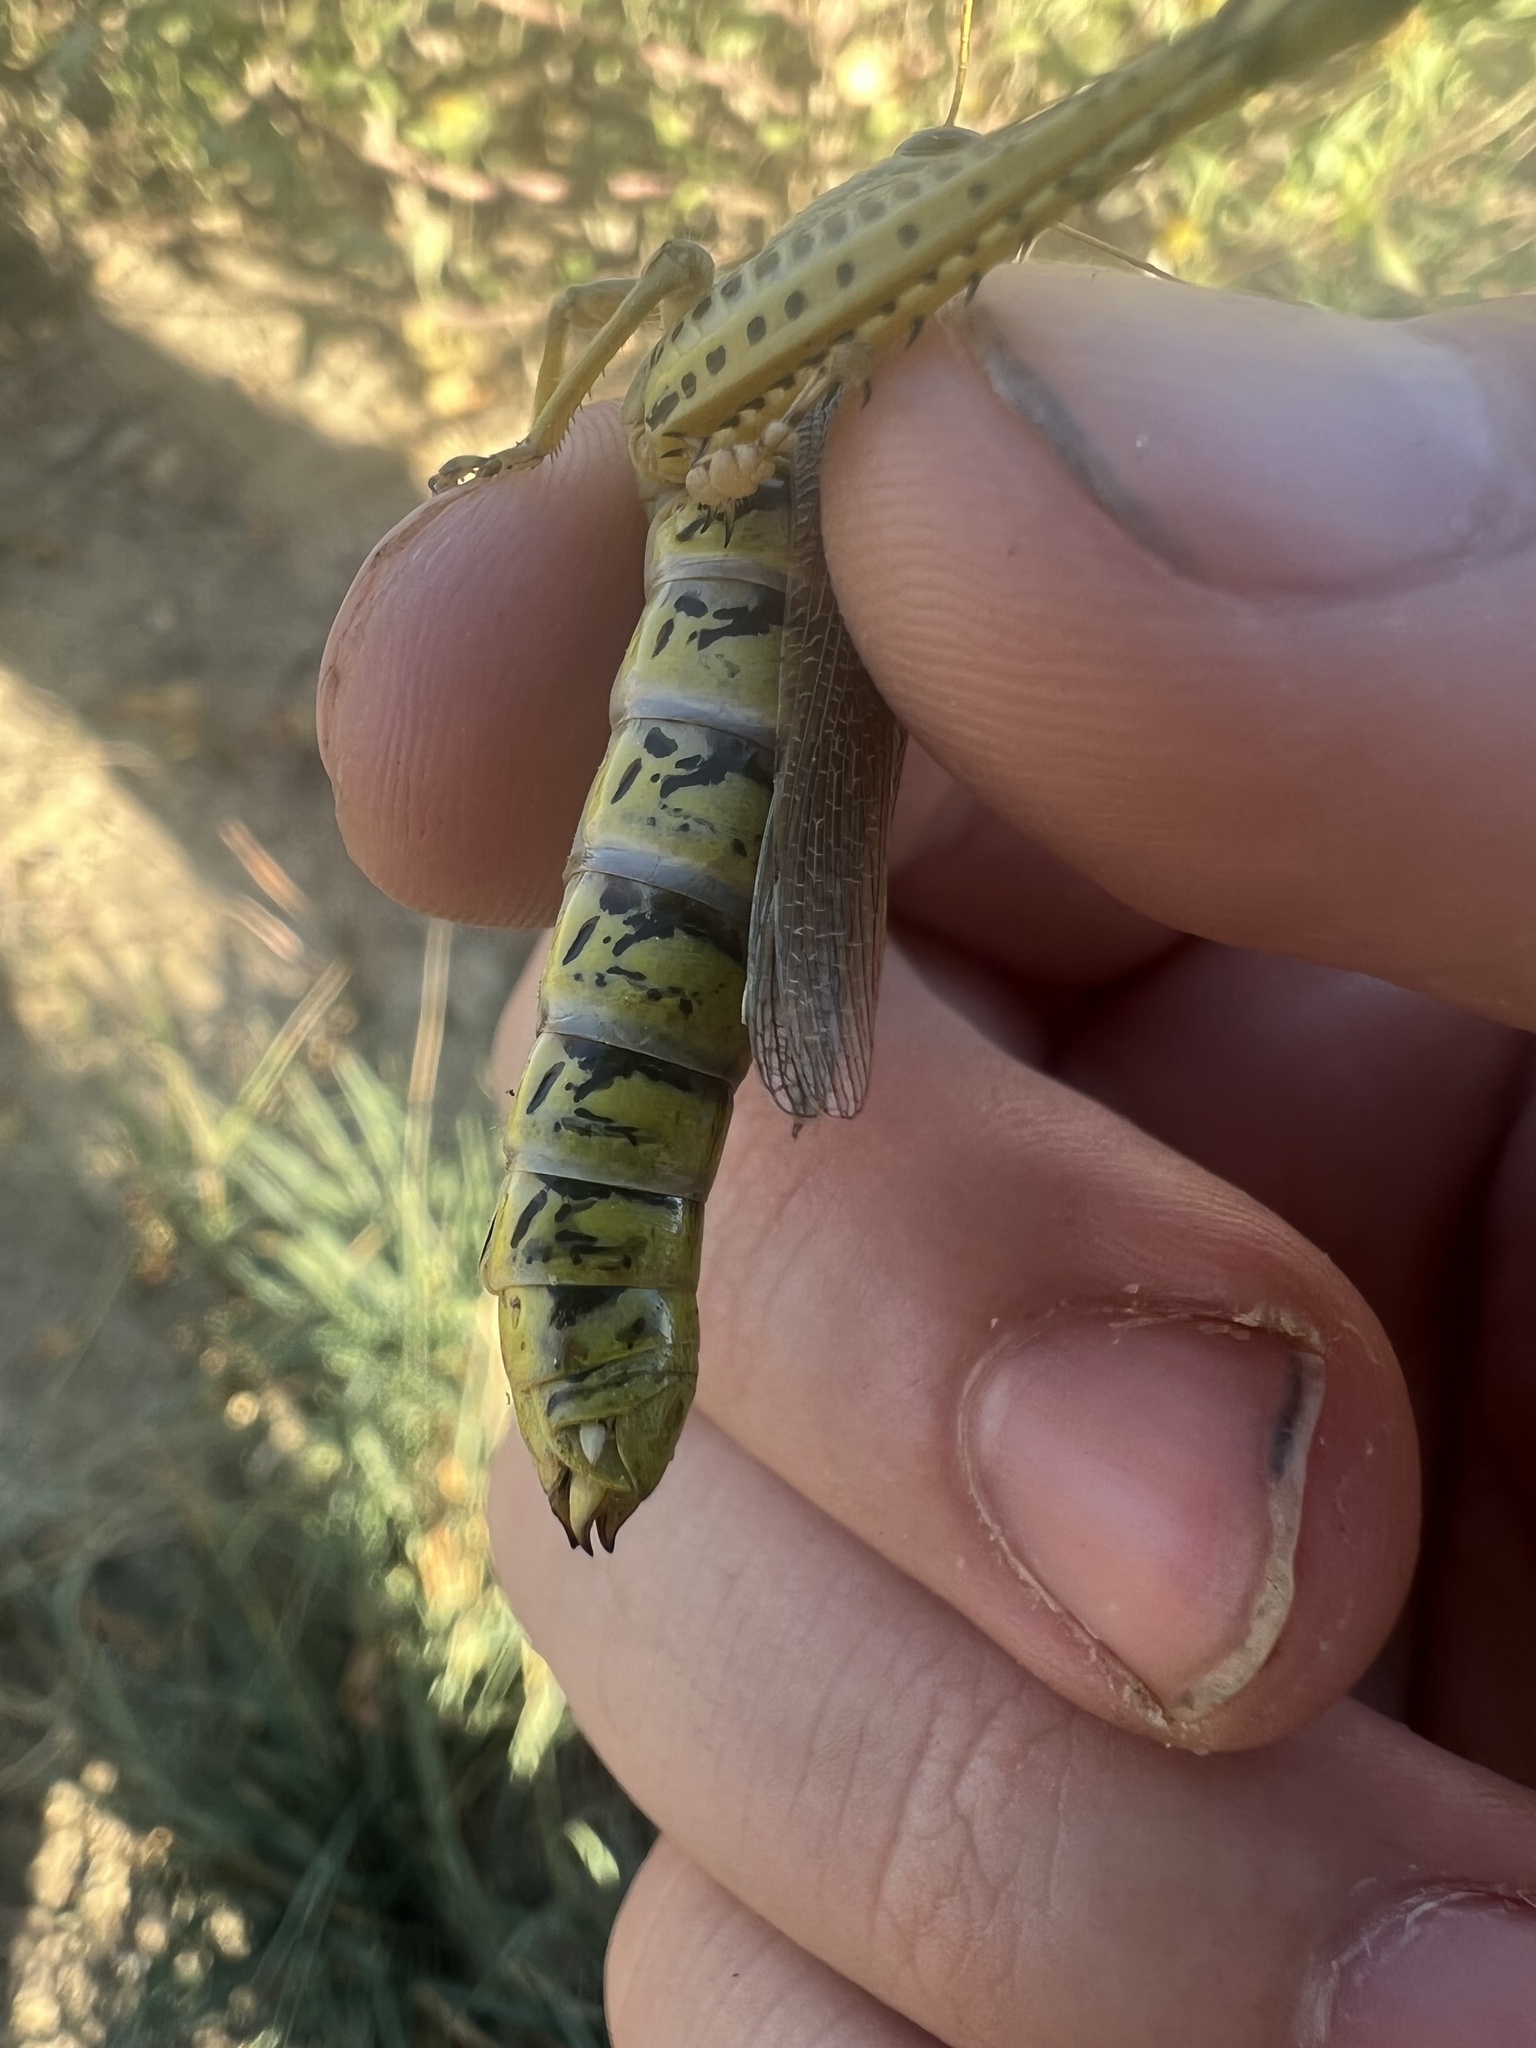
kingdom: Animalia
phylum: Arthropoda
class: Insecta
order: Orthoptera
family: Acrididae
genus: Melanoplus
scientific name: Melanoplus differentialis
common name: Differential grasshopper
